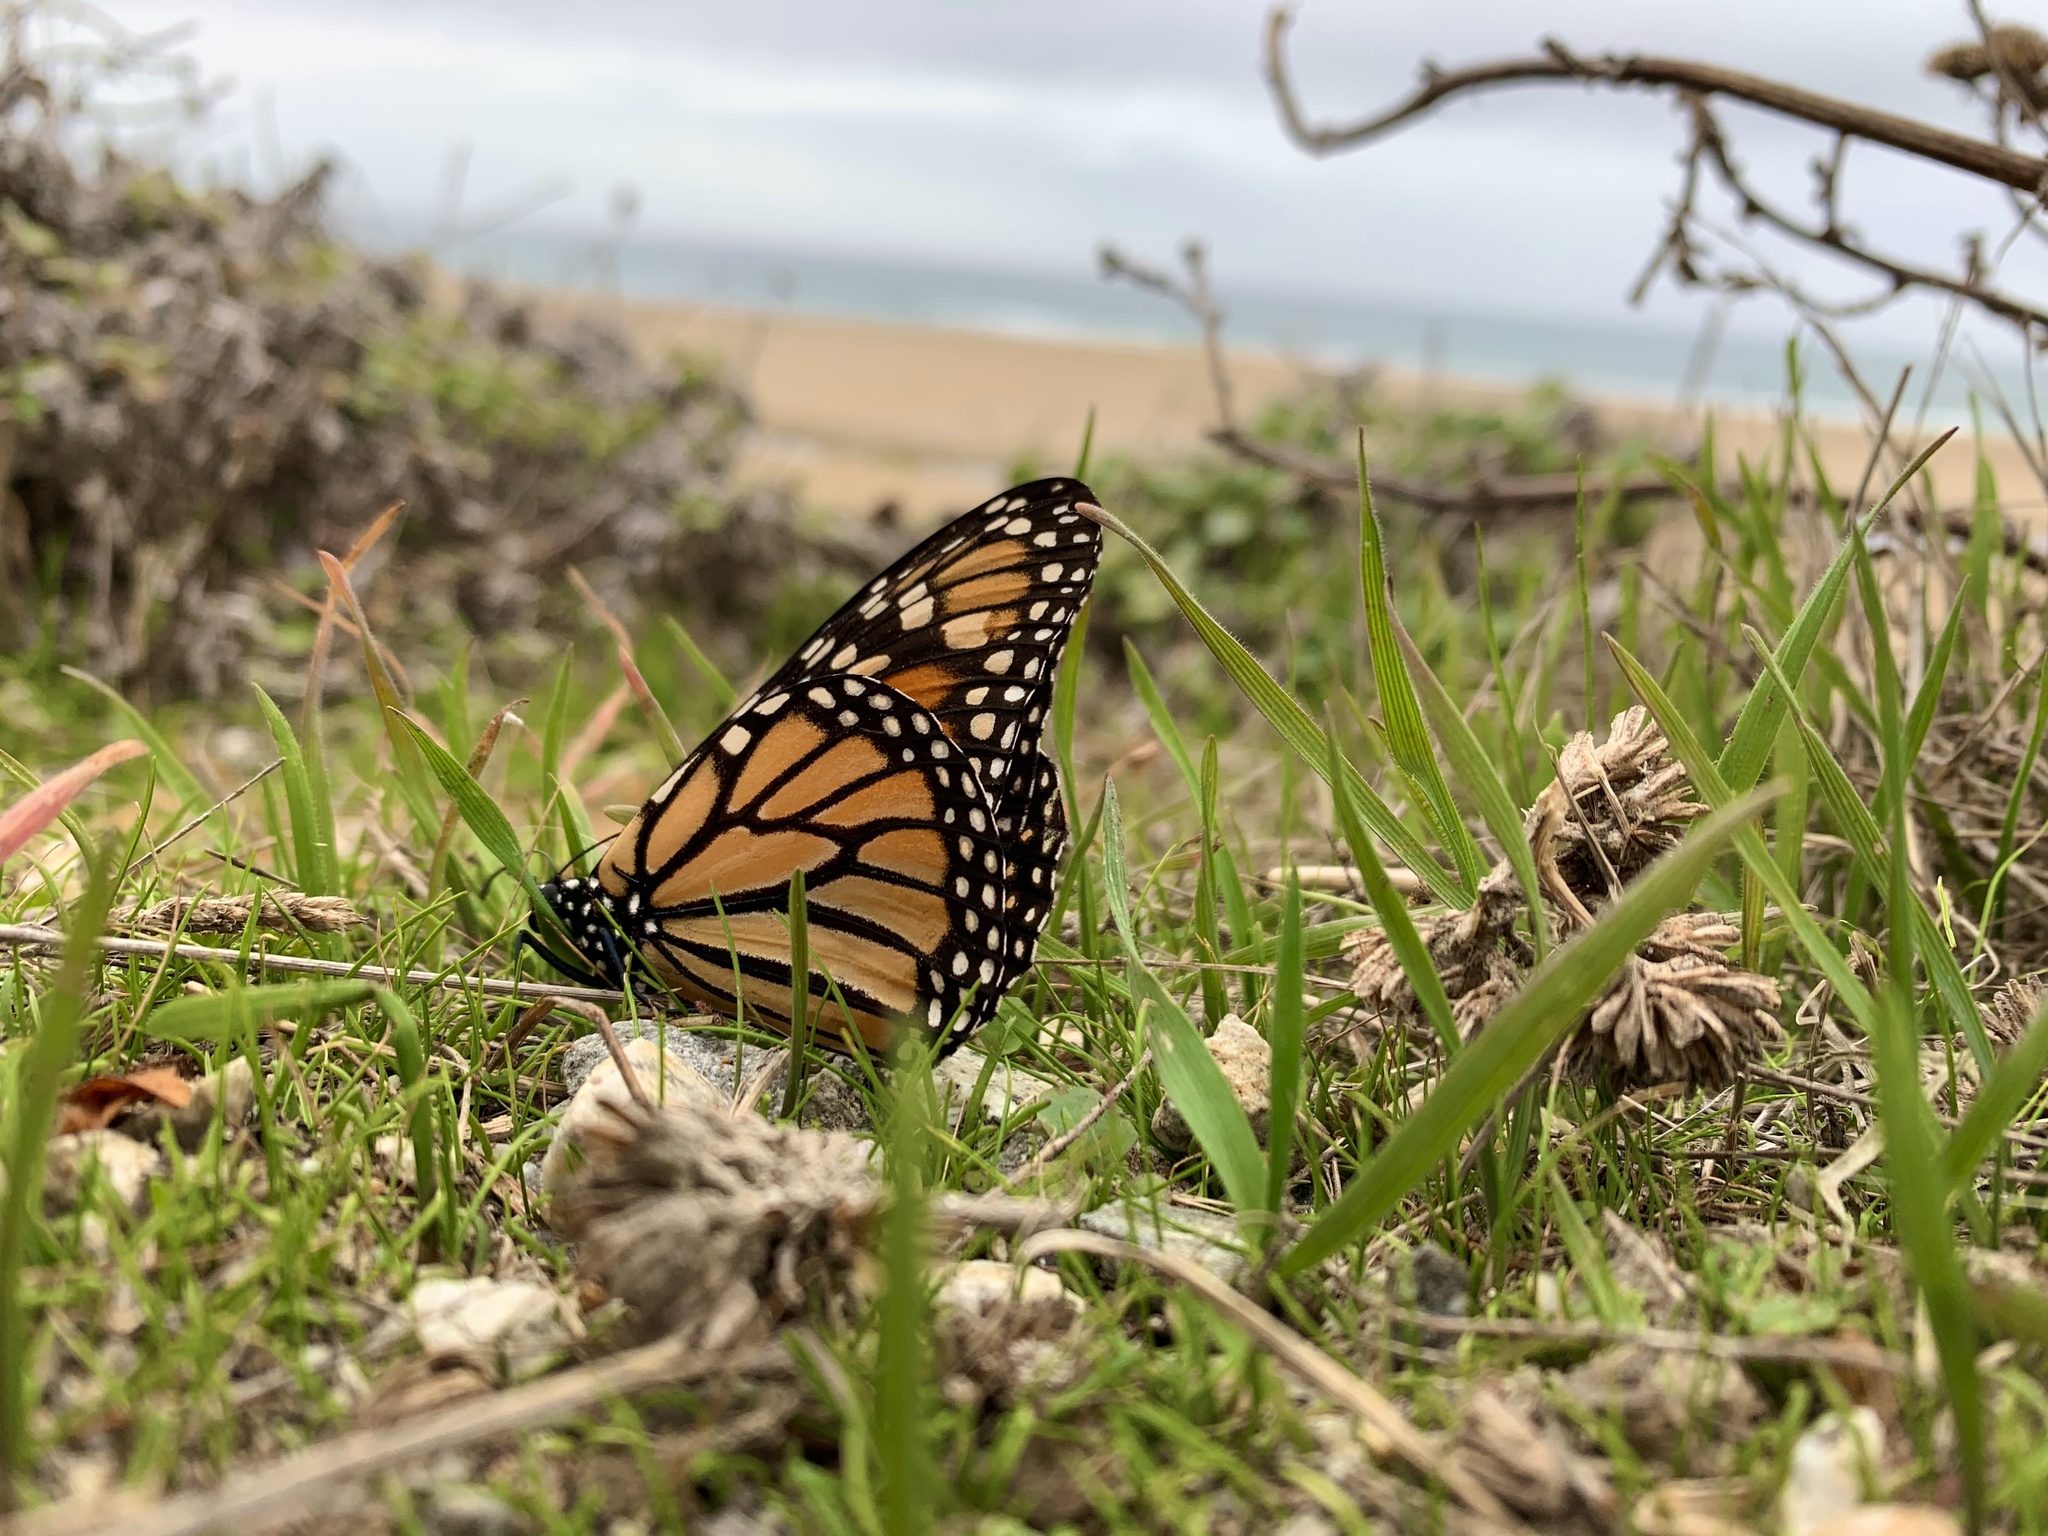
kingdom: Animalia
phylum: Arthropoda
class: Insecta
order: Lepidoptera
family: Nymphalidae
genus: Danaus
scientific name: Danaus plexippus
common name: Monarch
